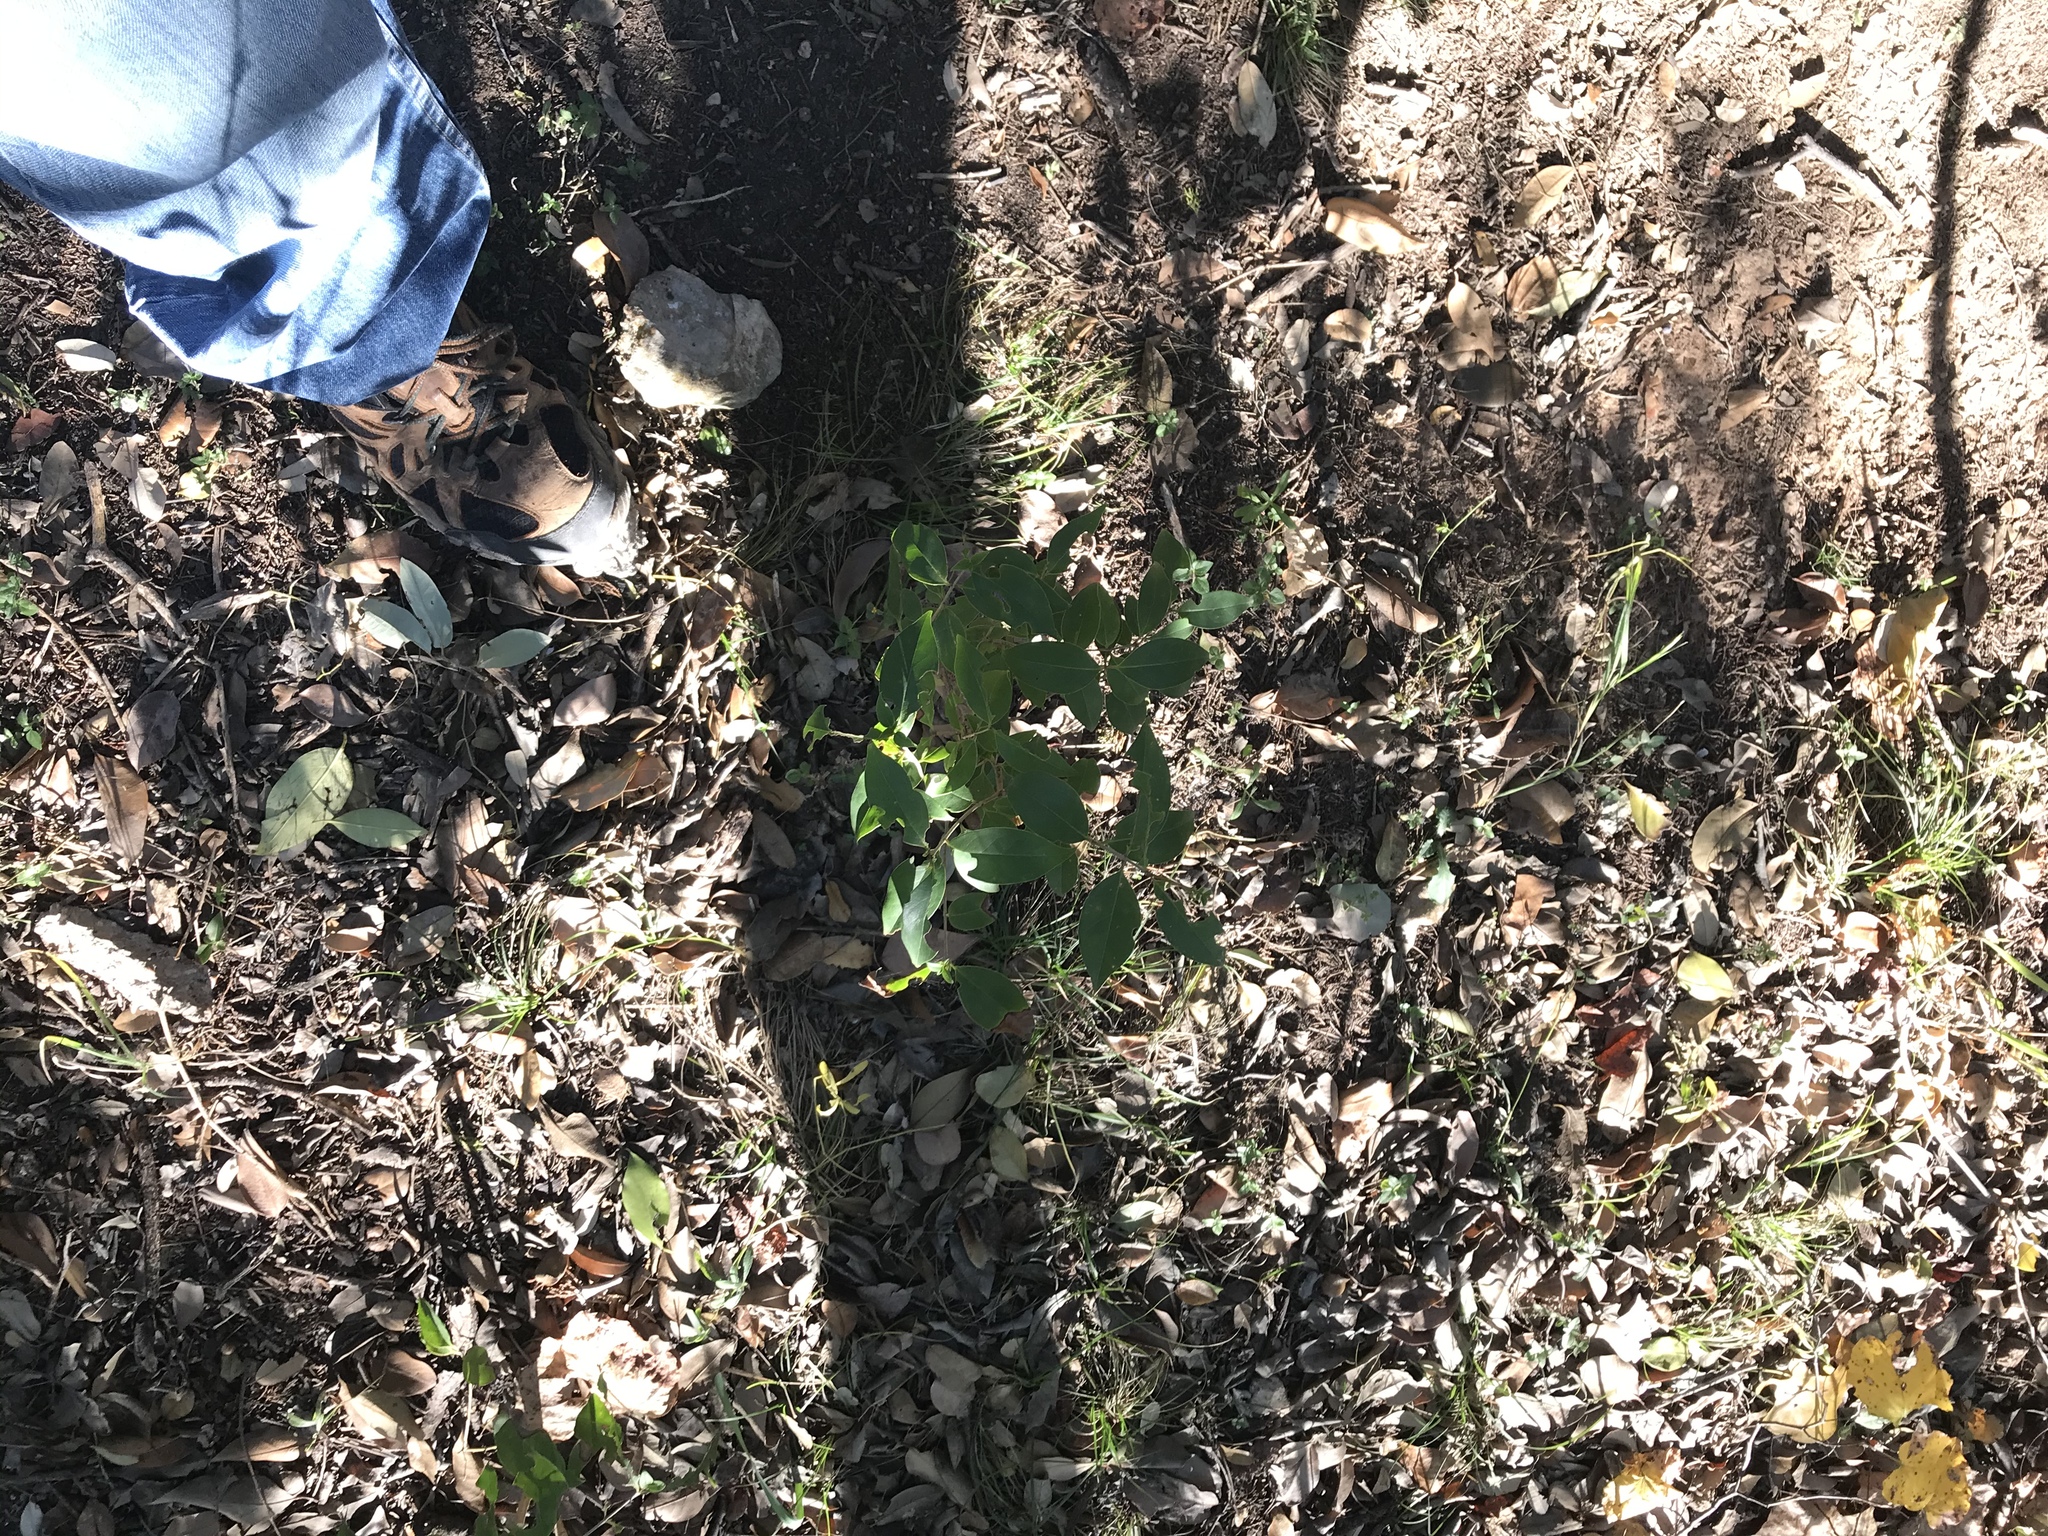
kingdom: Plantae
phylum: Tracheophyta
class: Magnoliopsida
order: Lamiales
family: Oleaceae
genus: Ligustrum
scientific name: Ligustrum lucidum
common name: Glossy privet
